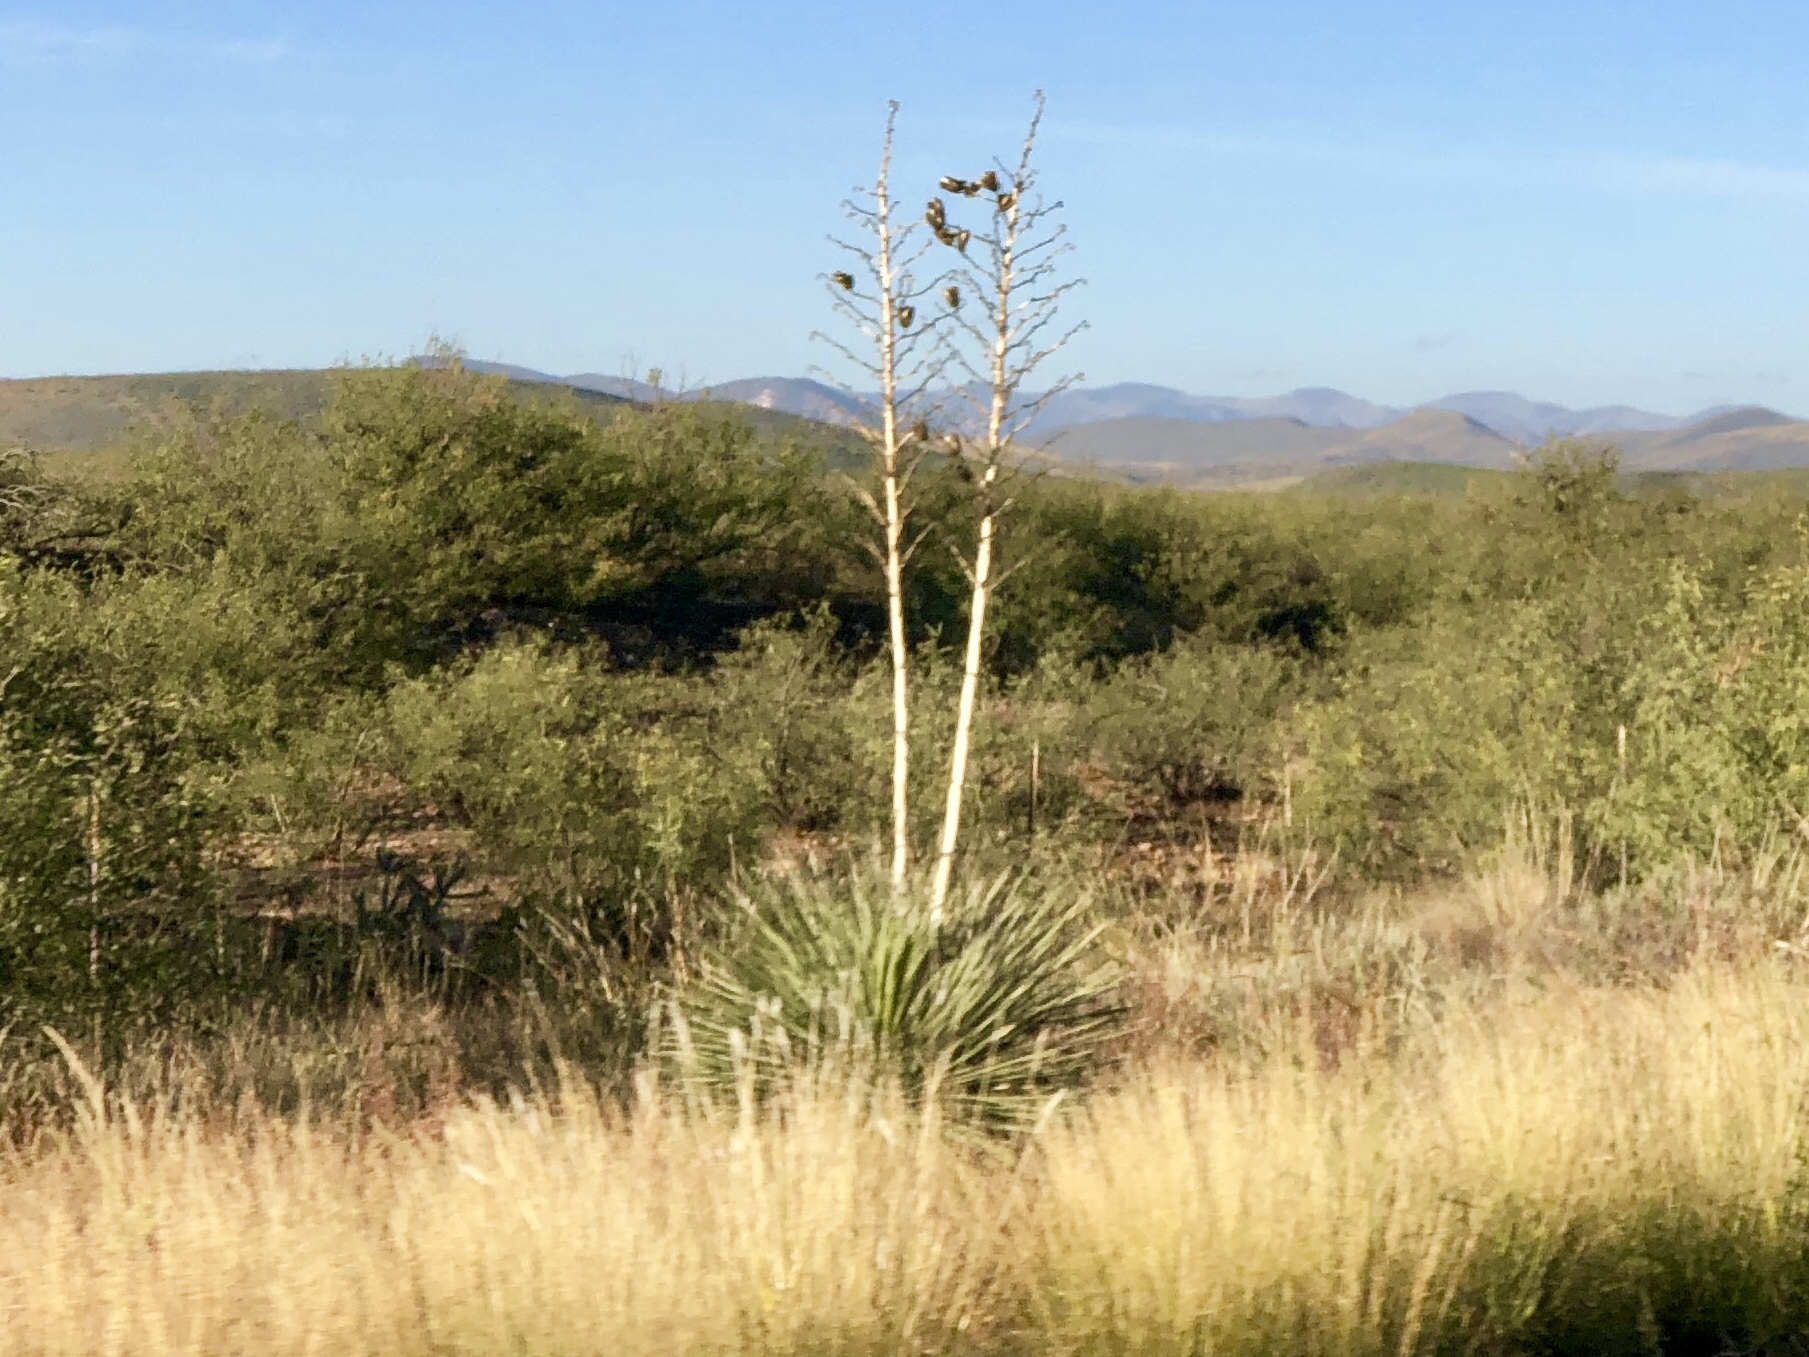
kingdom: Plantae
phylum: Tracheophyta
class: Liliopsida
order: Asparagales
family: Asparagaceae
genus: Yucca
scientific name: Yucca elata
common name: Palmella
